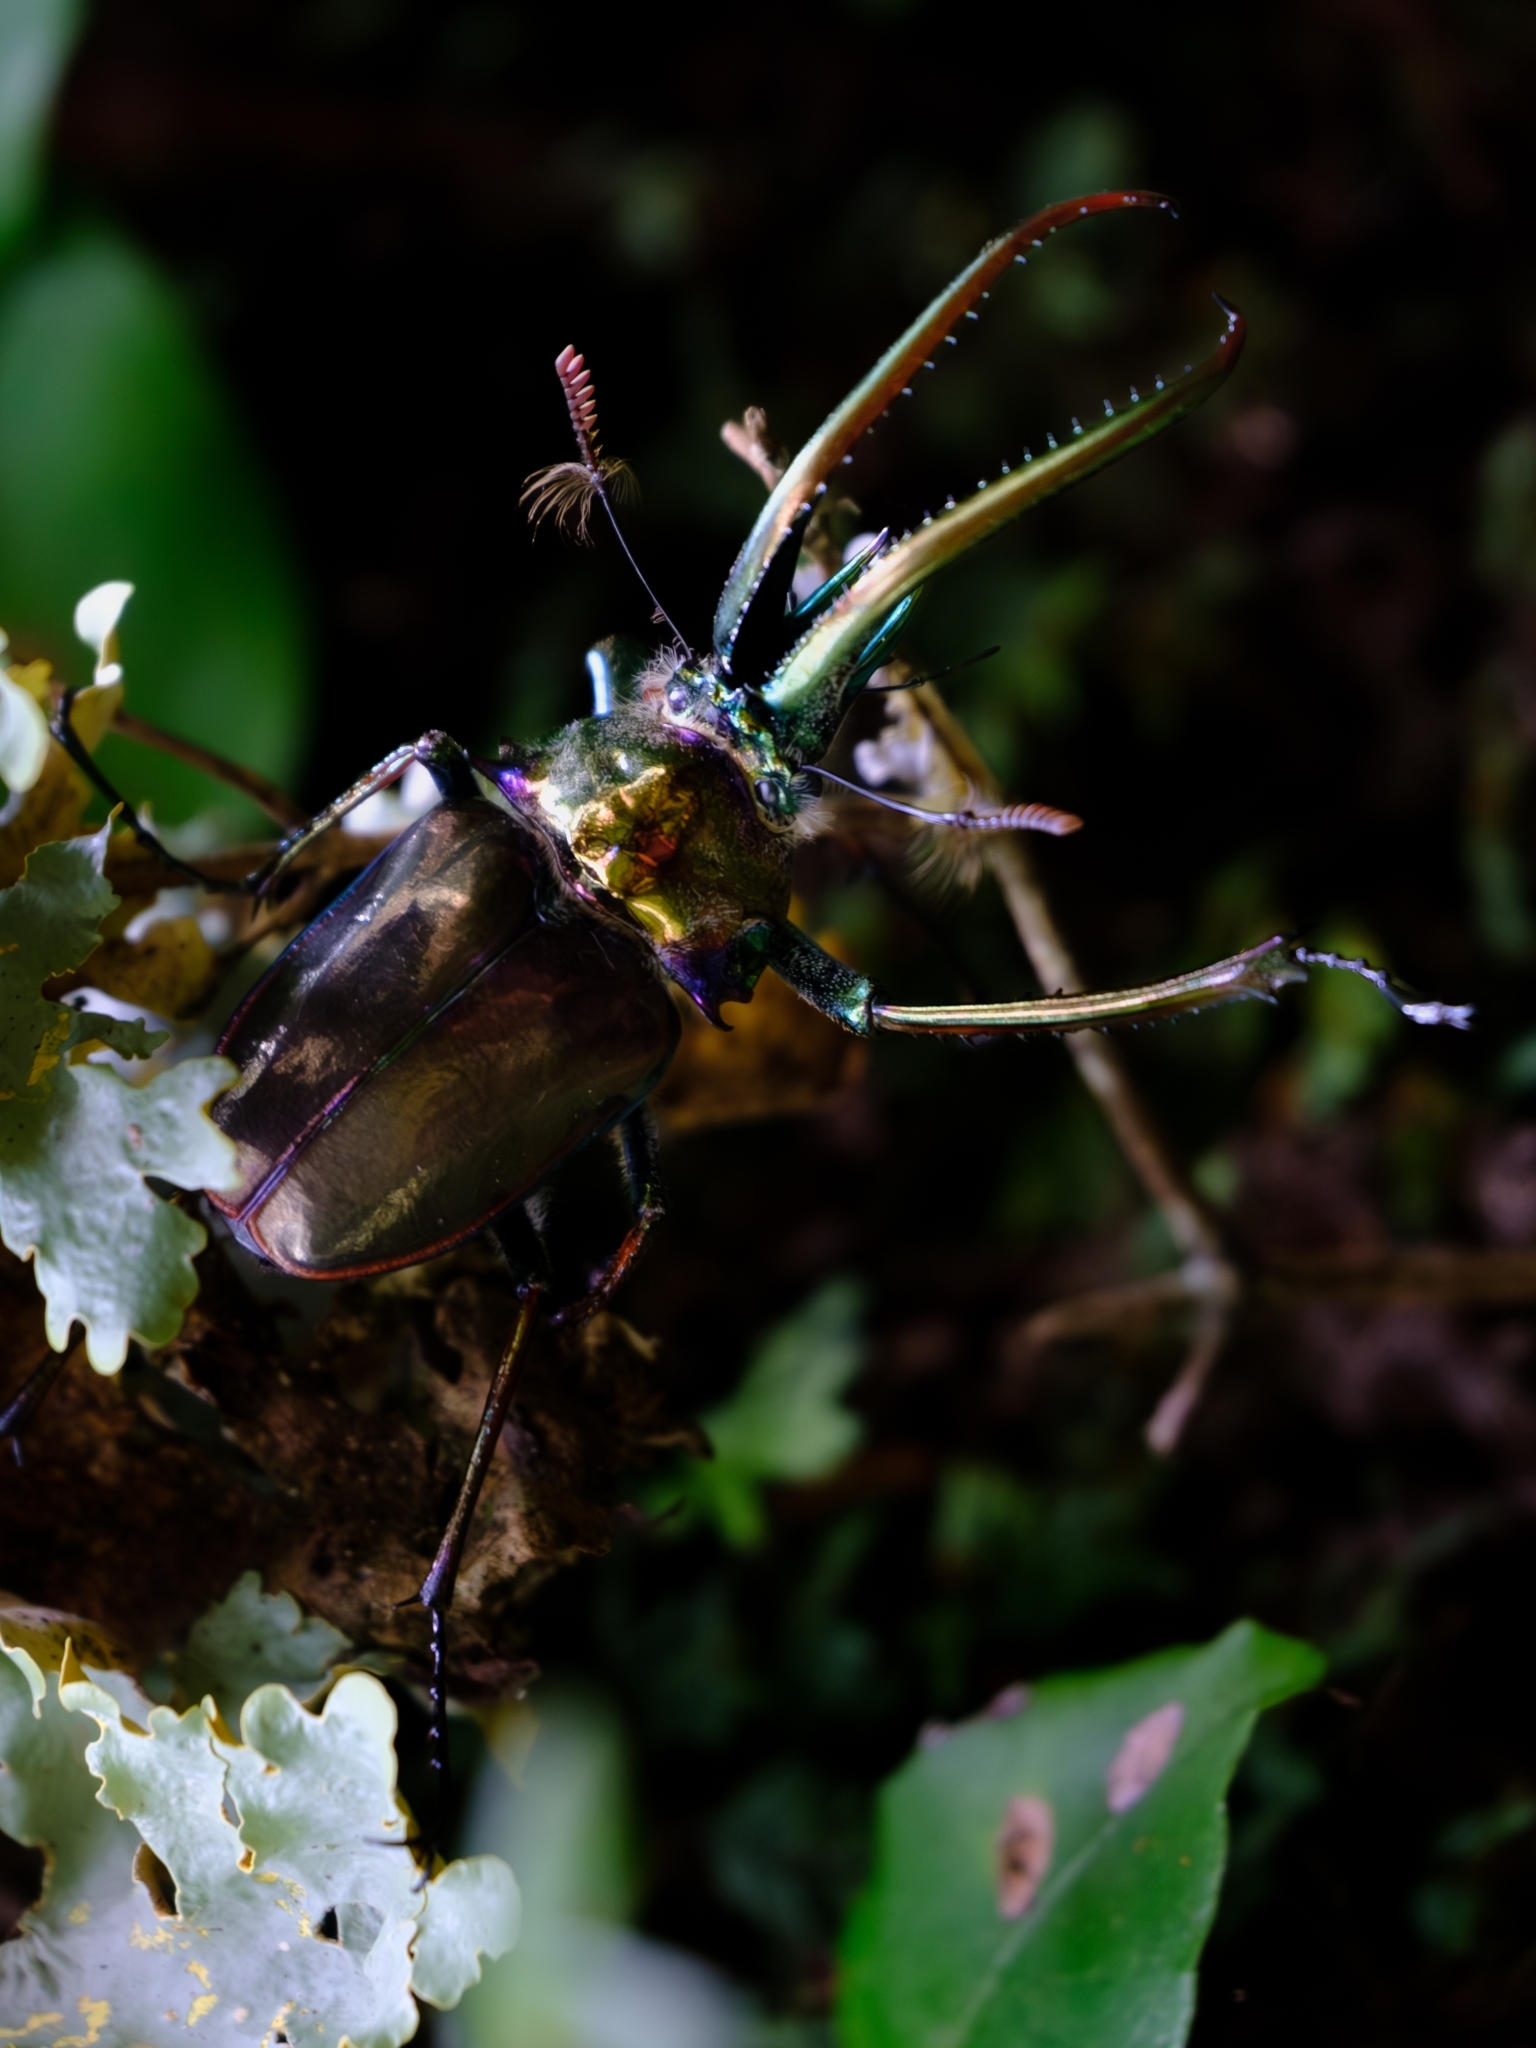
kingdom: Animalia
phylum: Arthropoda
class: Insecta
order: Coleoptera
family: Lucanidae
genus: Chiasognathus
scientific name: Chiasognathus grantii
